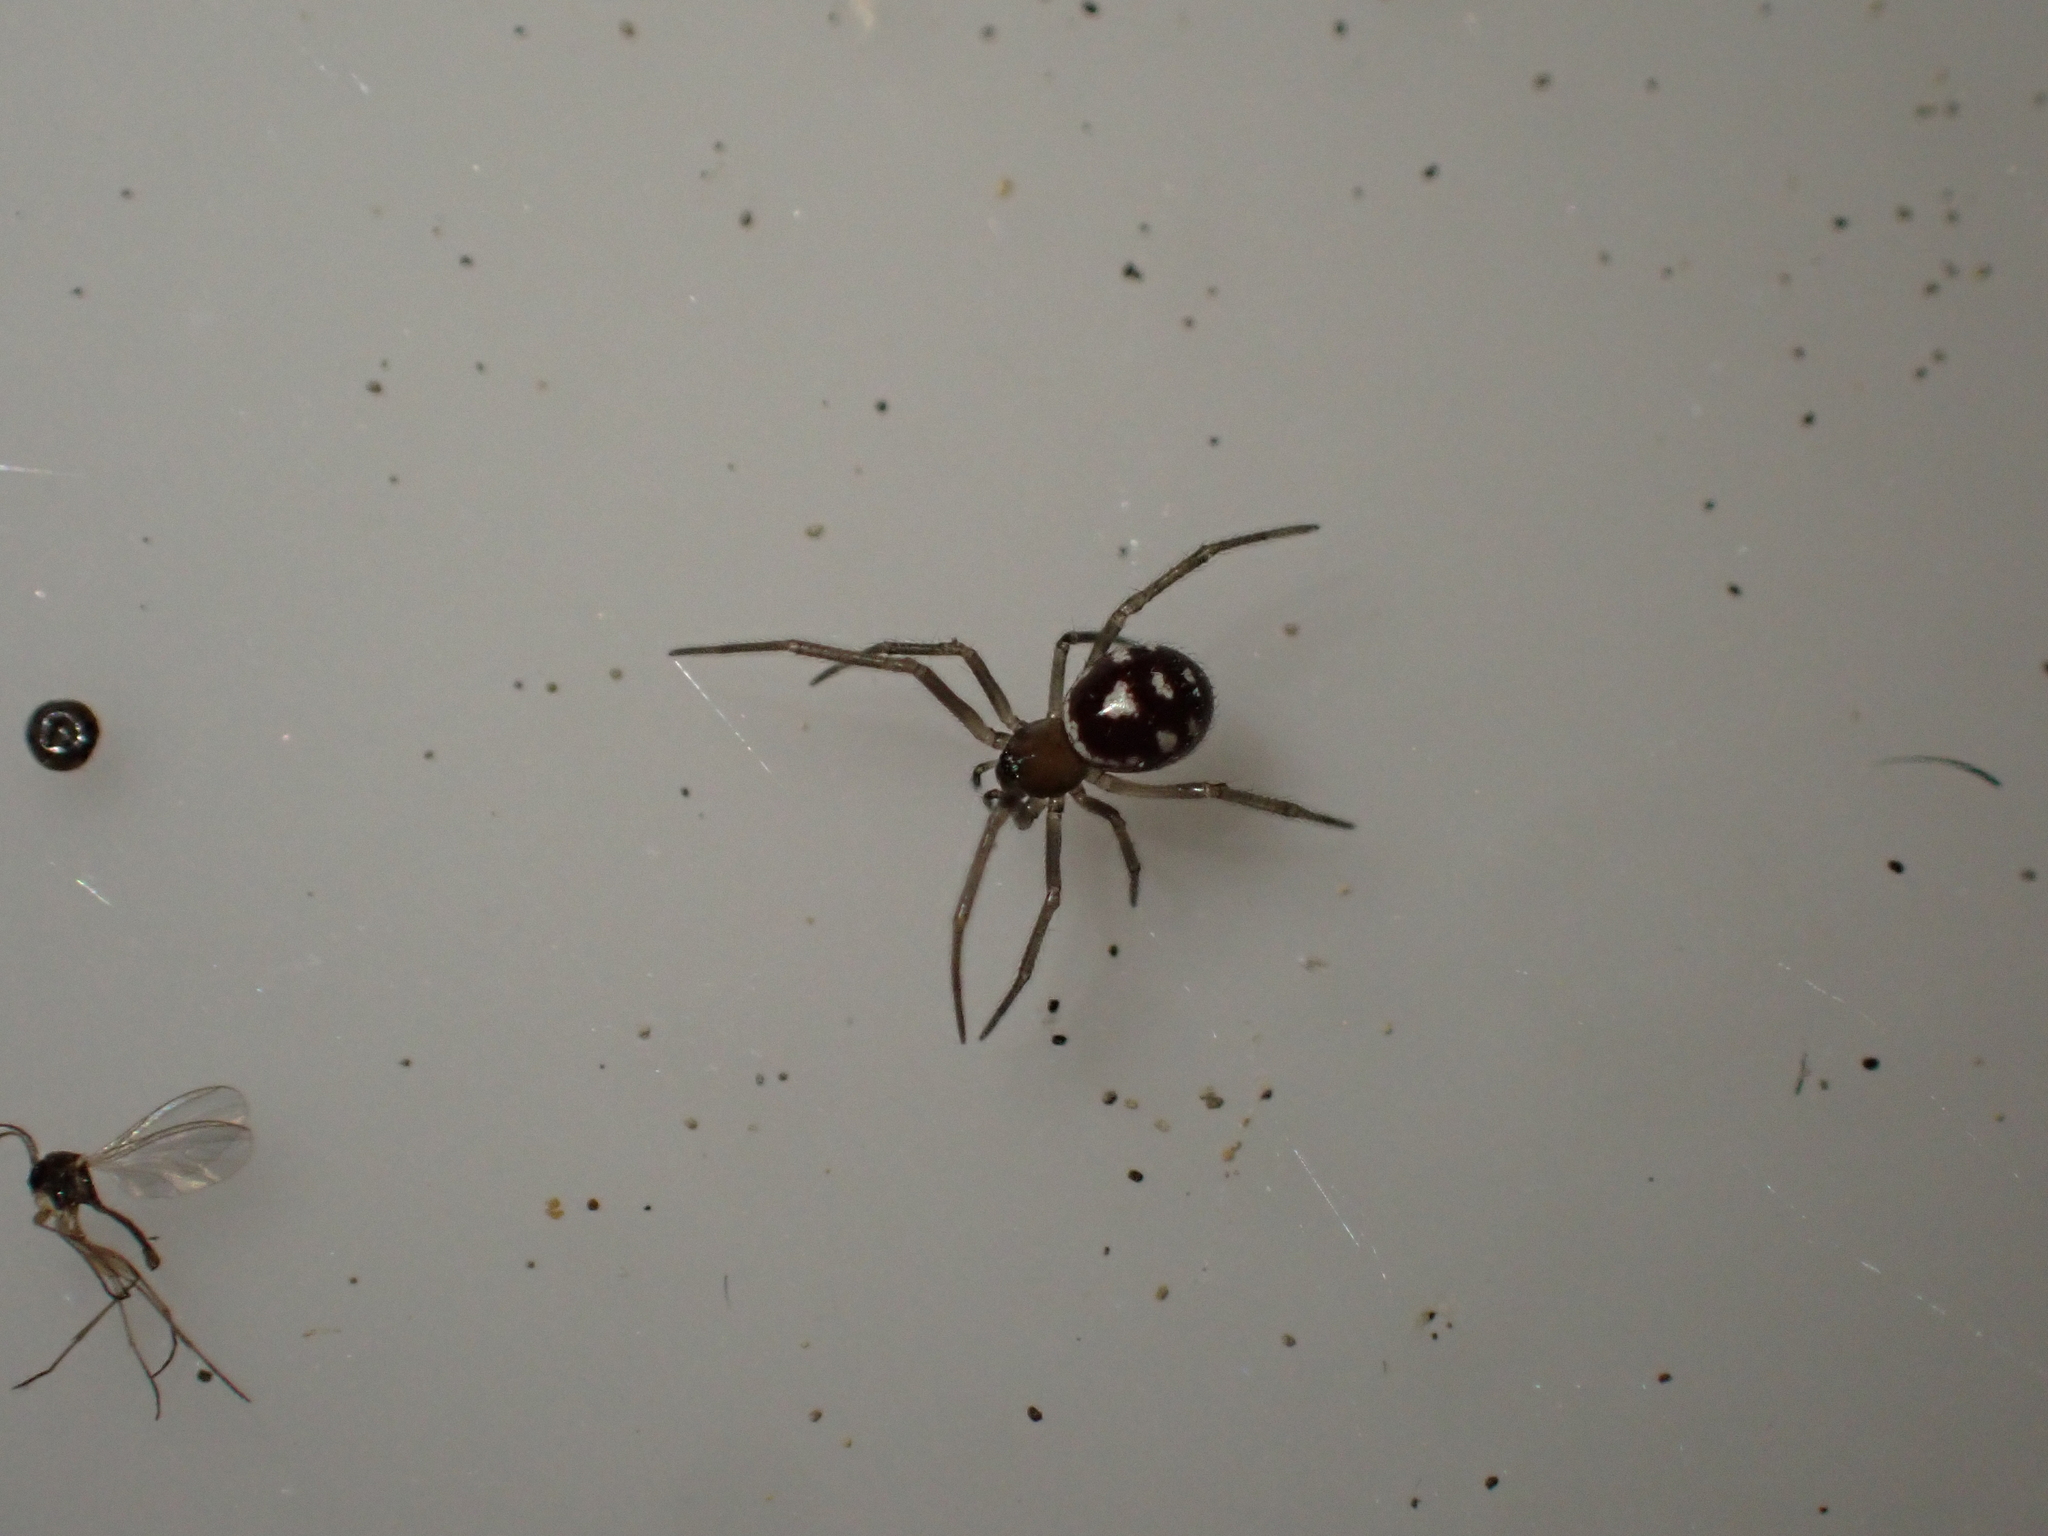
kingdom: Animalia
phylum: Arthropoda
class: Arachnida
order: Araneae
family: Theridiidae
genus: Steatoda
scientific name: Steatoda grossa
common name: False black widow
